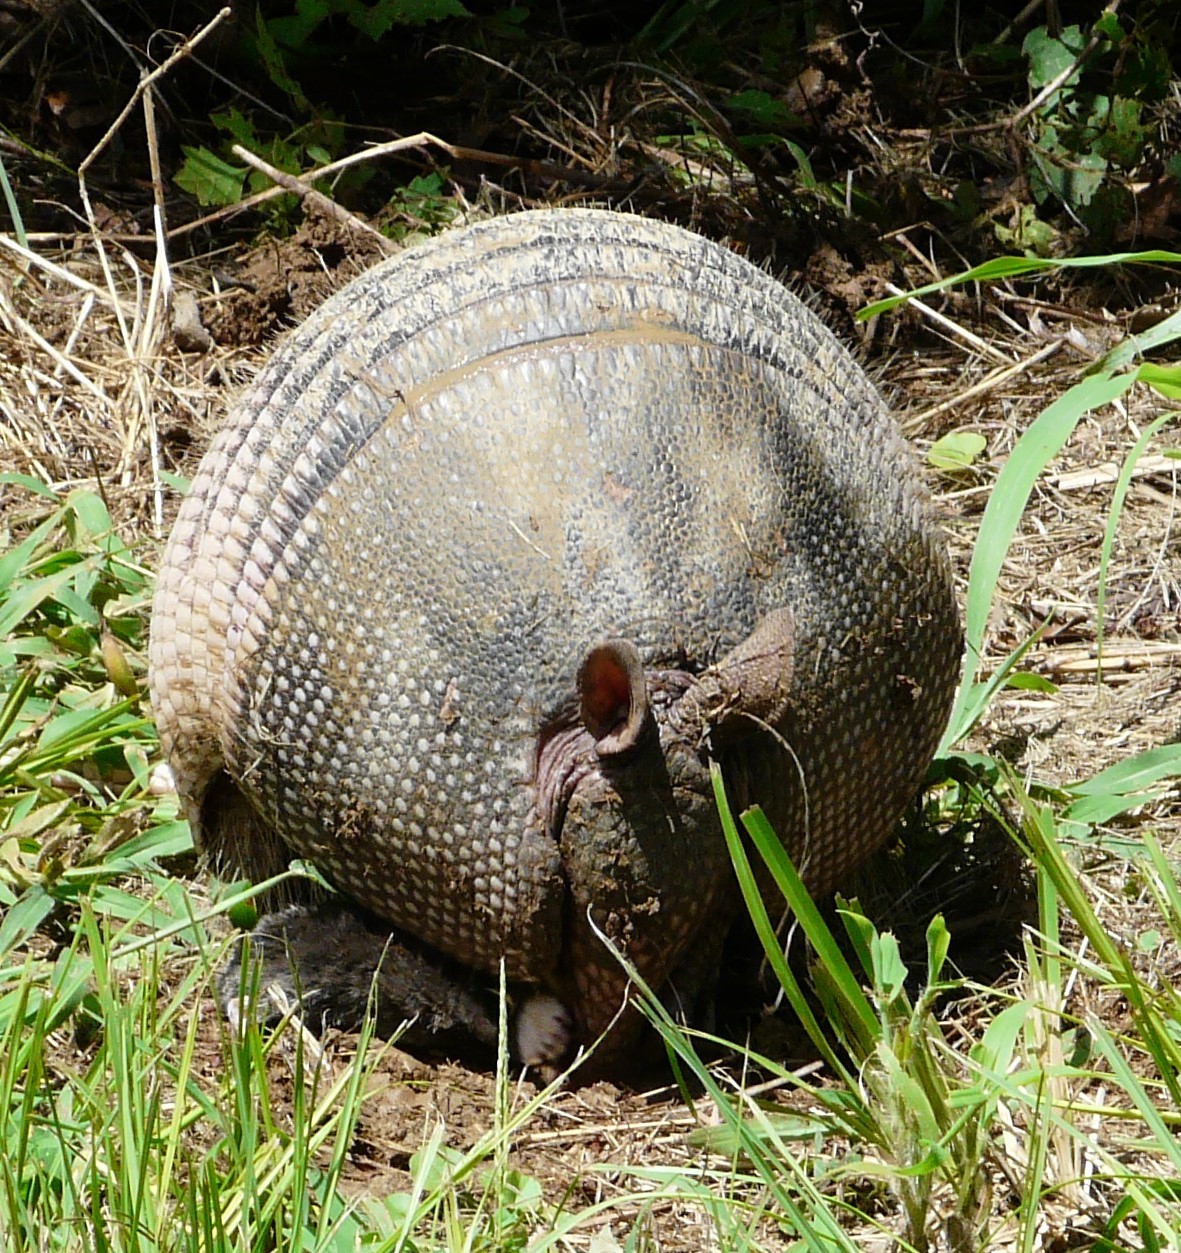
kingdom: Animalia
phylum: Chordata
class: Mammalia
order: Cingulata
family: Dasypodidae
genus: Dasypus
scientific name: Dasypus novemcinctus
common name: Nine-banded armadillo
